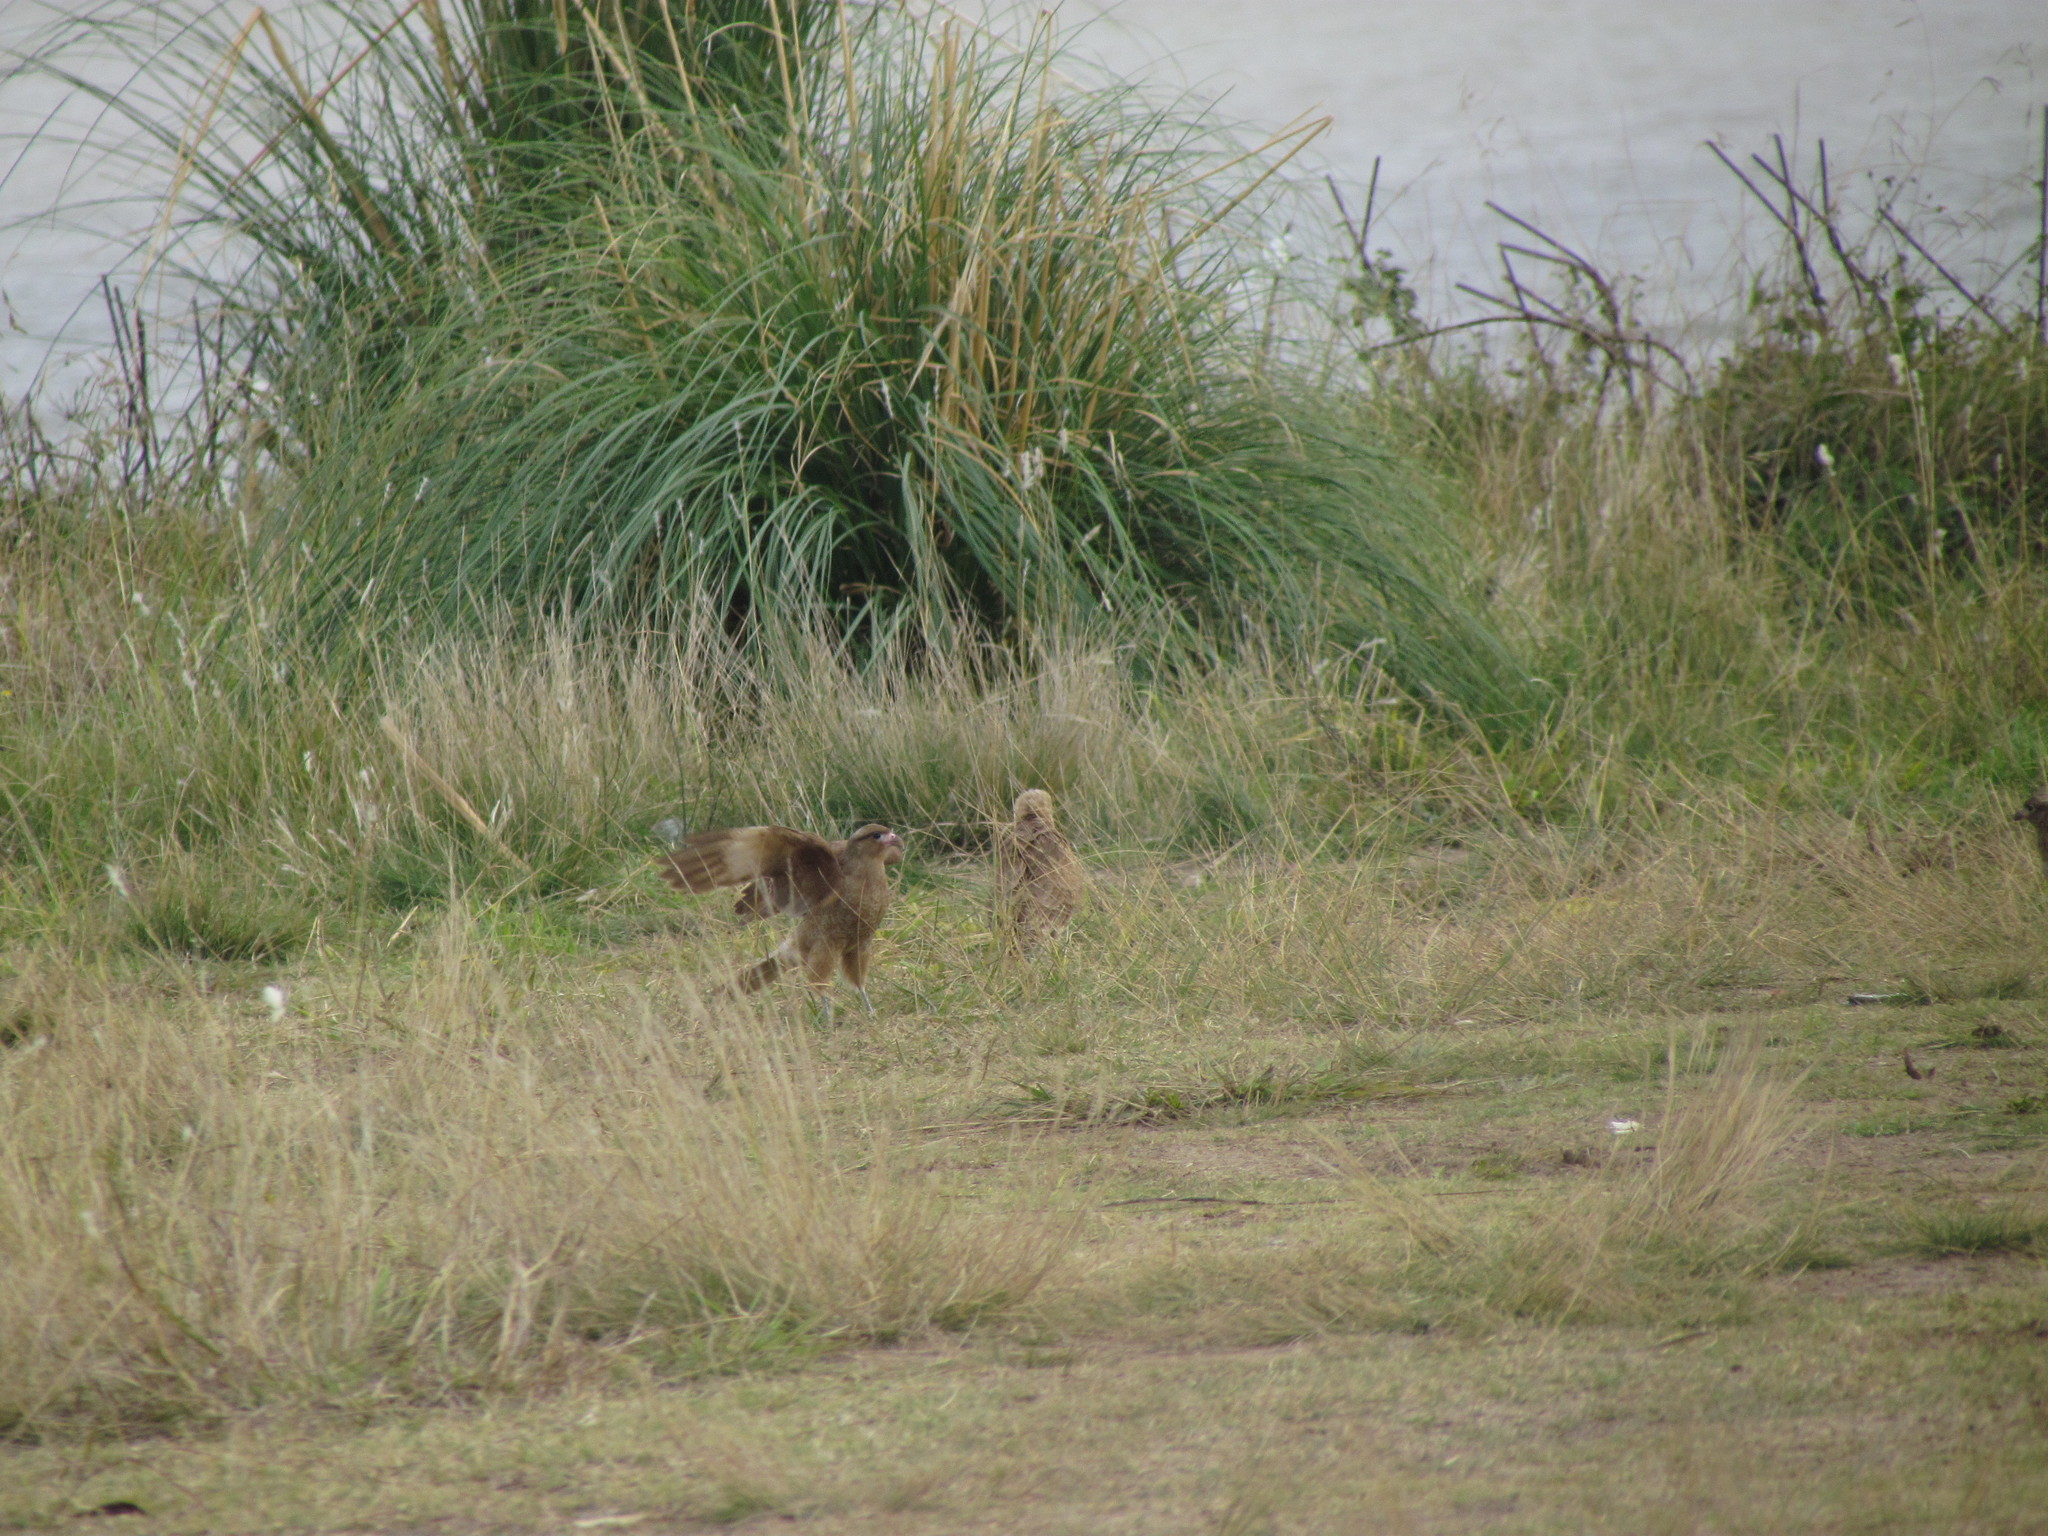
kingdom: Animalia
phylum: Chordata
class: Aves
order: Falconiformes
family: Falconidae
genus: Daptrius
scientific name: Daptrius
